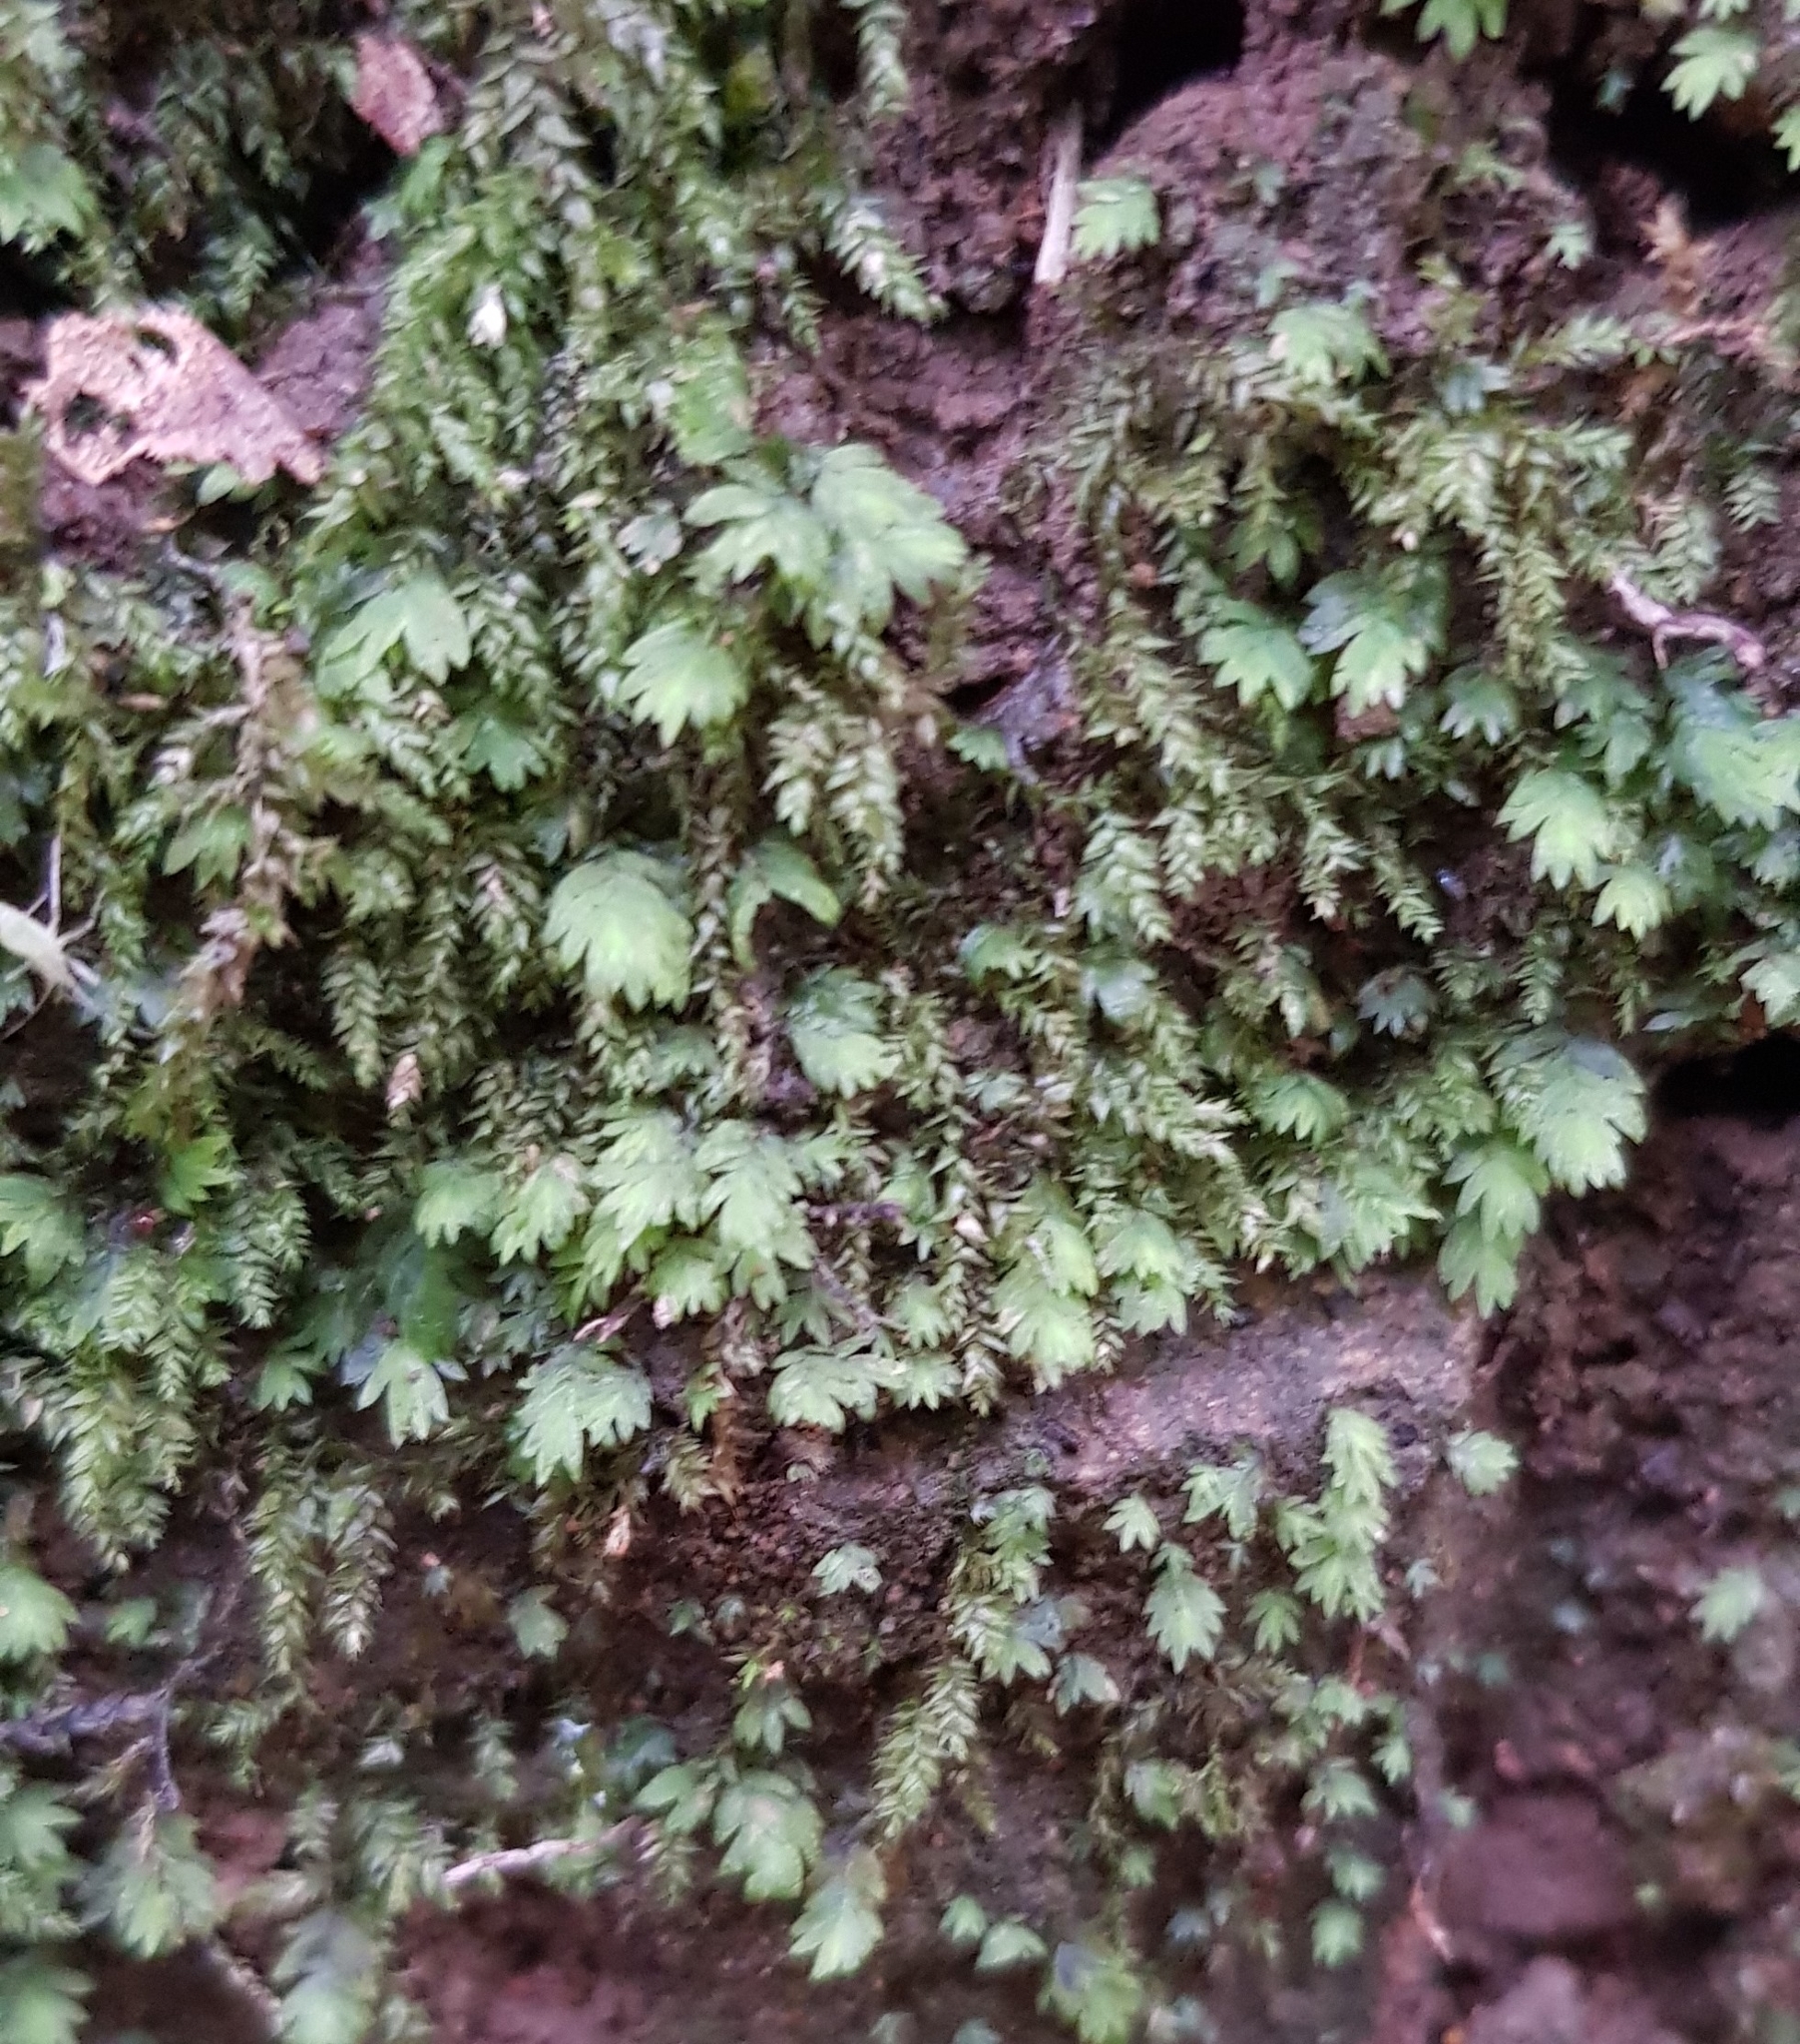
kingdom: Plantae
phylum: Bryophyta
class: Bryopsida
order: Dicranales
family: Fissidentaceae
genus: Fissidens
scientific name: Fissidens taxifolius
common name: Yew-leaved pocket moss
